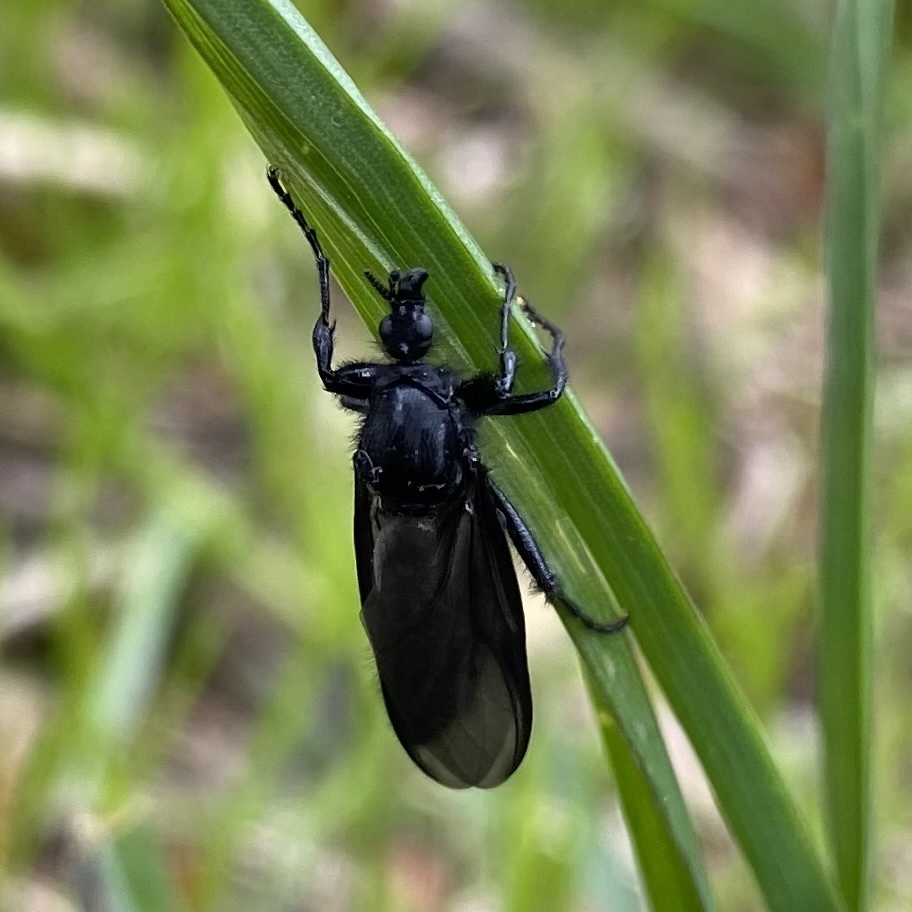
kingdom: Animalia
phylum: Arthropoda
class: Insecta
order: Diptera
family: Bibionidae
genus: Bibio
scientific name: Bibio marci
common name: St marks fly
